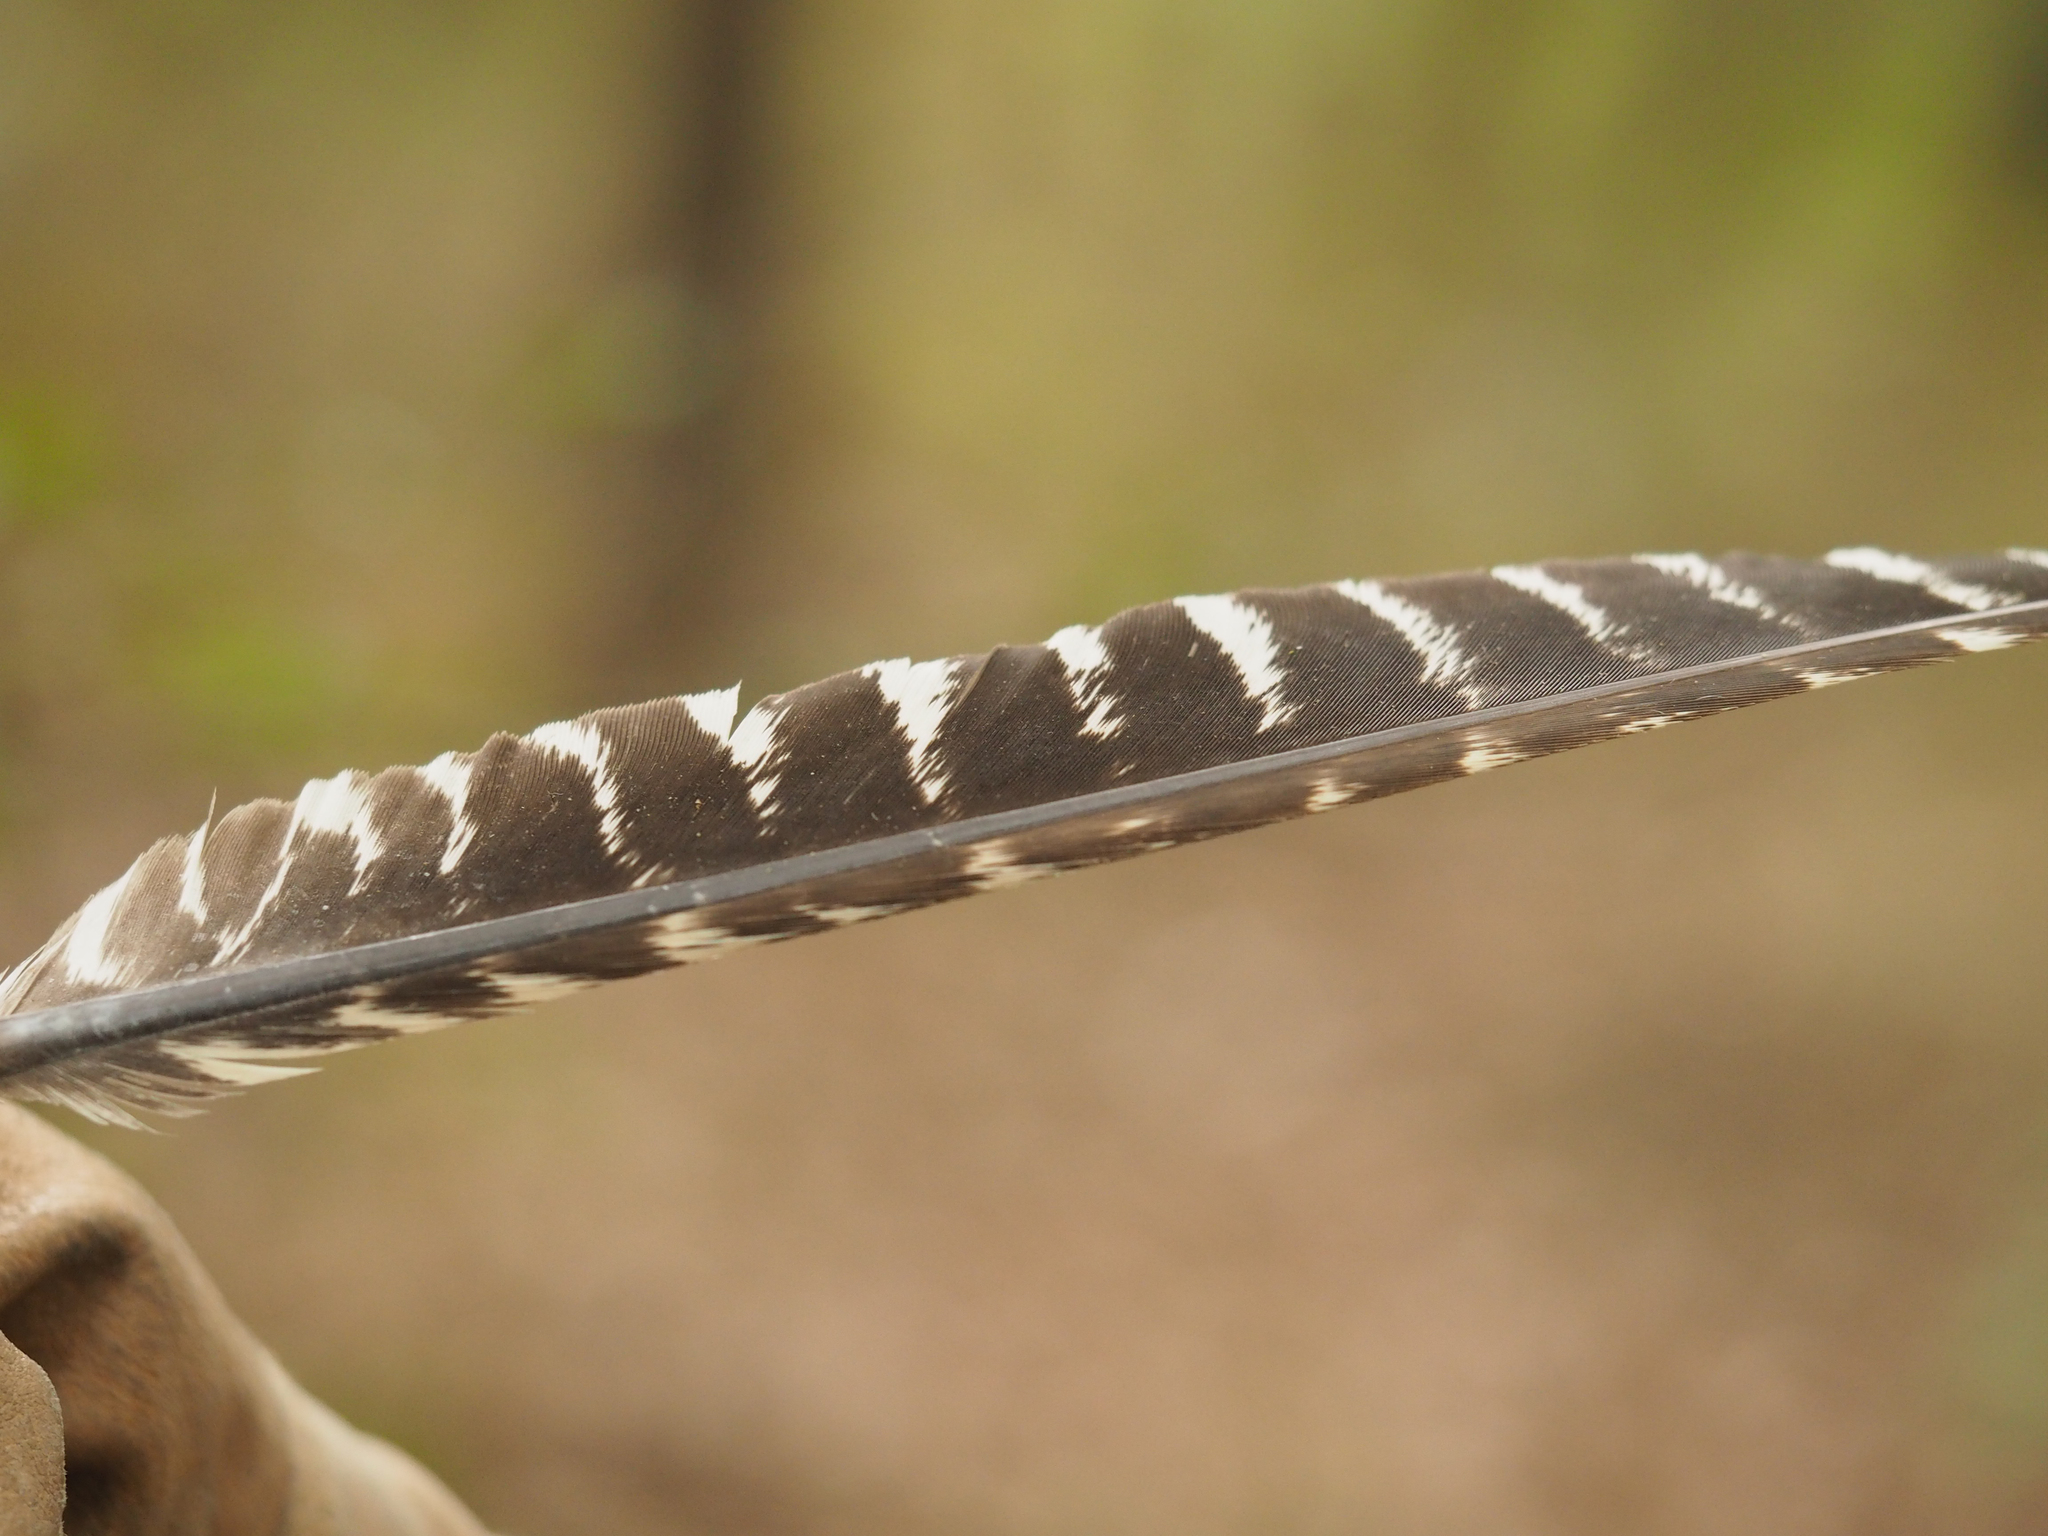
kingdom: Animalia
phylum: Chordata
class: Aves
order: Galliformes
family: Phasianidae
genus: Meleagris
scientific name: Meleagris gallopavo
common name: Wild turkey
